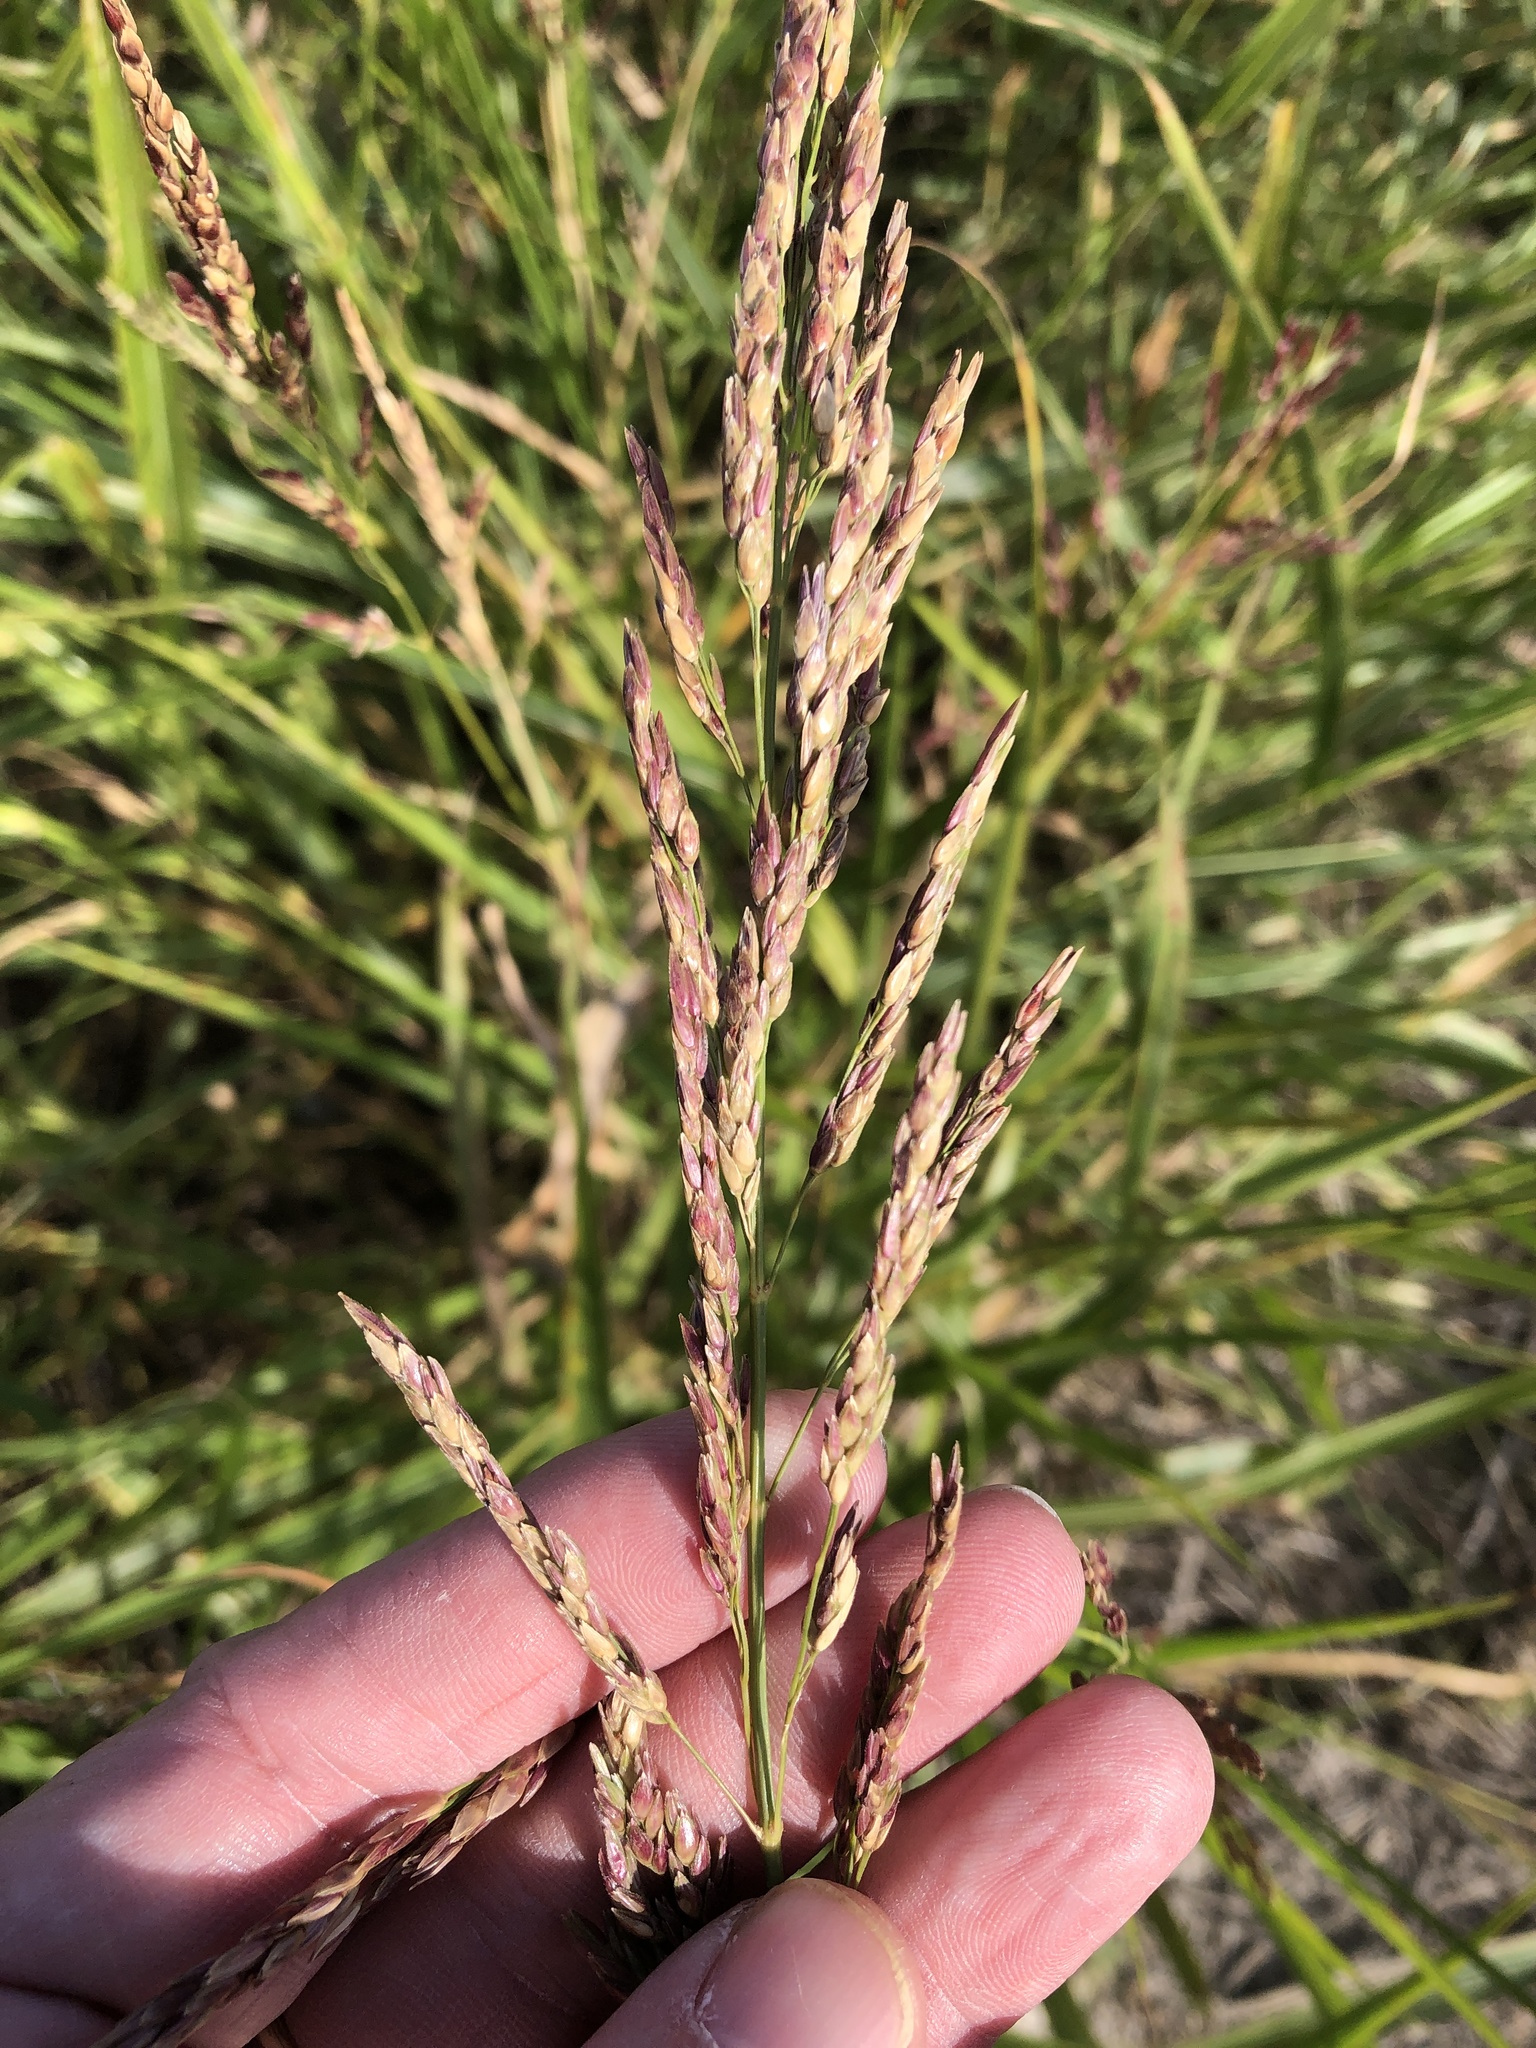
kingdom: Plantae
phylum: Tracheophyta
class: Liliopsida
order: Poales
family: Poaceae
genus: Sorghum
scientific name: Sorghum halepense
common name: Johnson-grass
